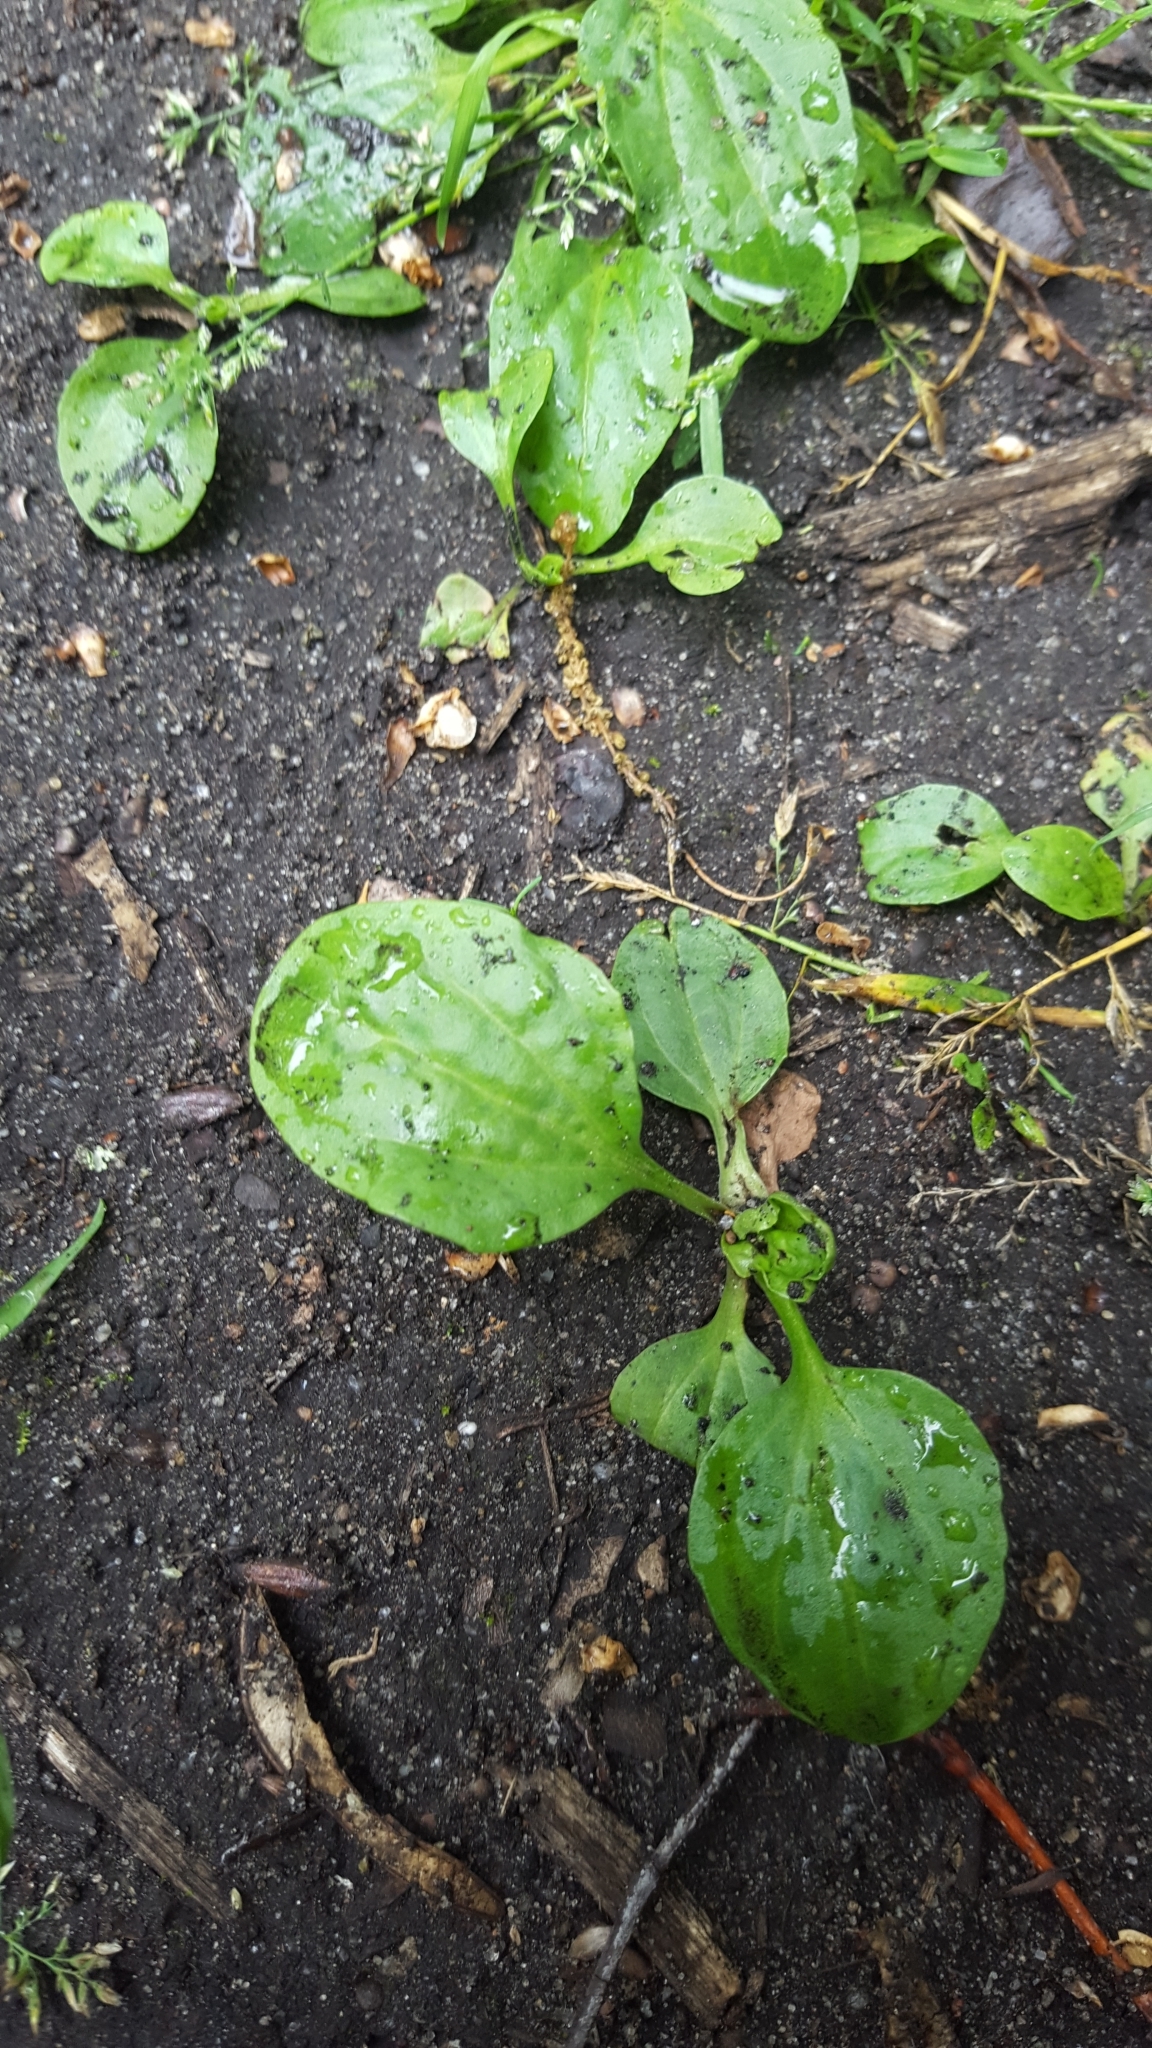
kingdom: Plantae
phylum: Tracheophyta
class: Magnoliopsida
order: Lamiales
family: Plantaginaceae
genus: Plantago
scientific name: Plantago major
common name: Common plantain
